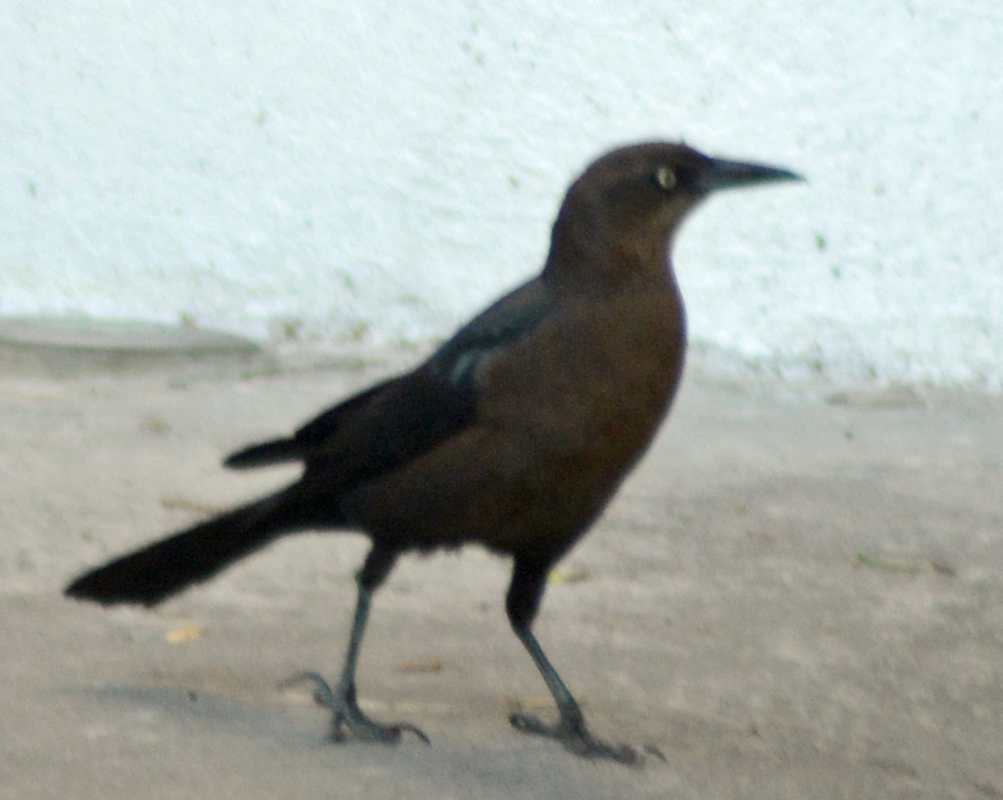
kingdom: Animalia
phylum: Chordata
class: Aves
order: Passeriformes
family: Icteridae
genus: Quiscalus
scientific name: Quiscalus mexicanus
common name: Great-tailed grackle
